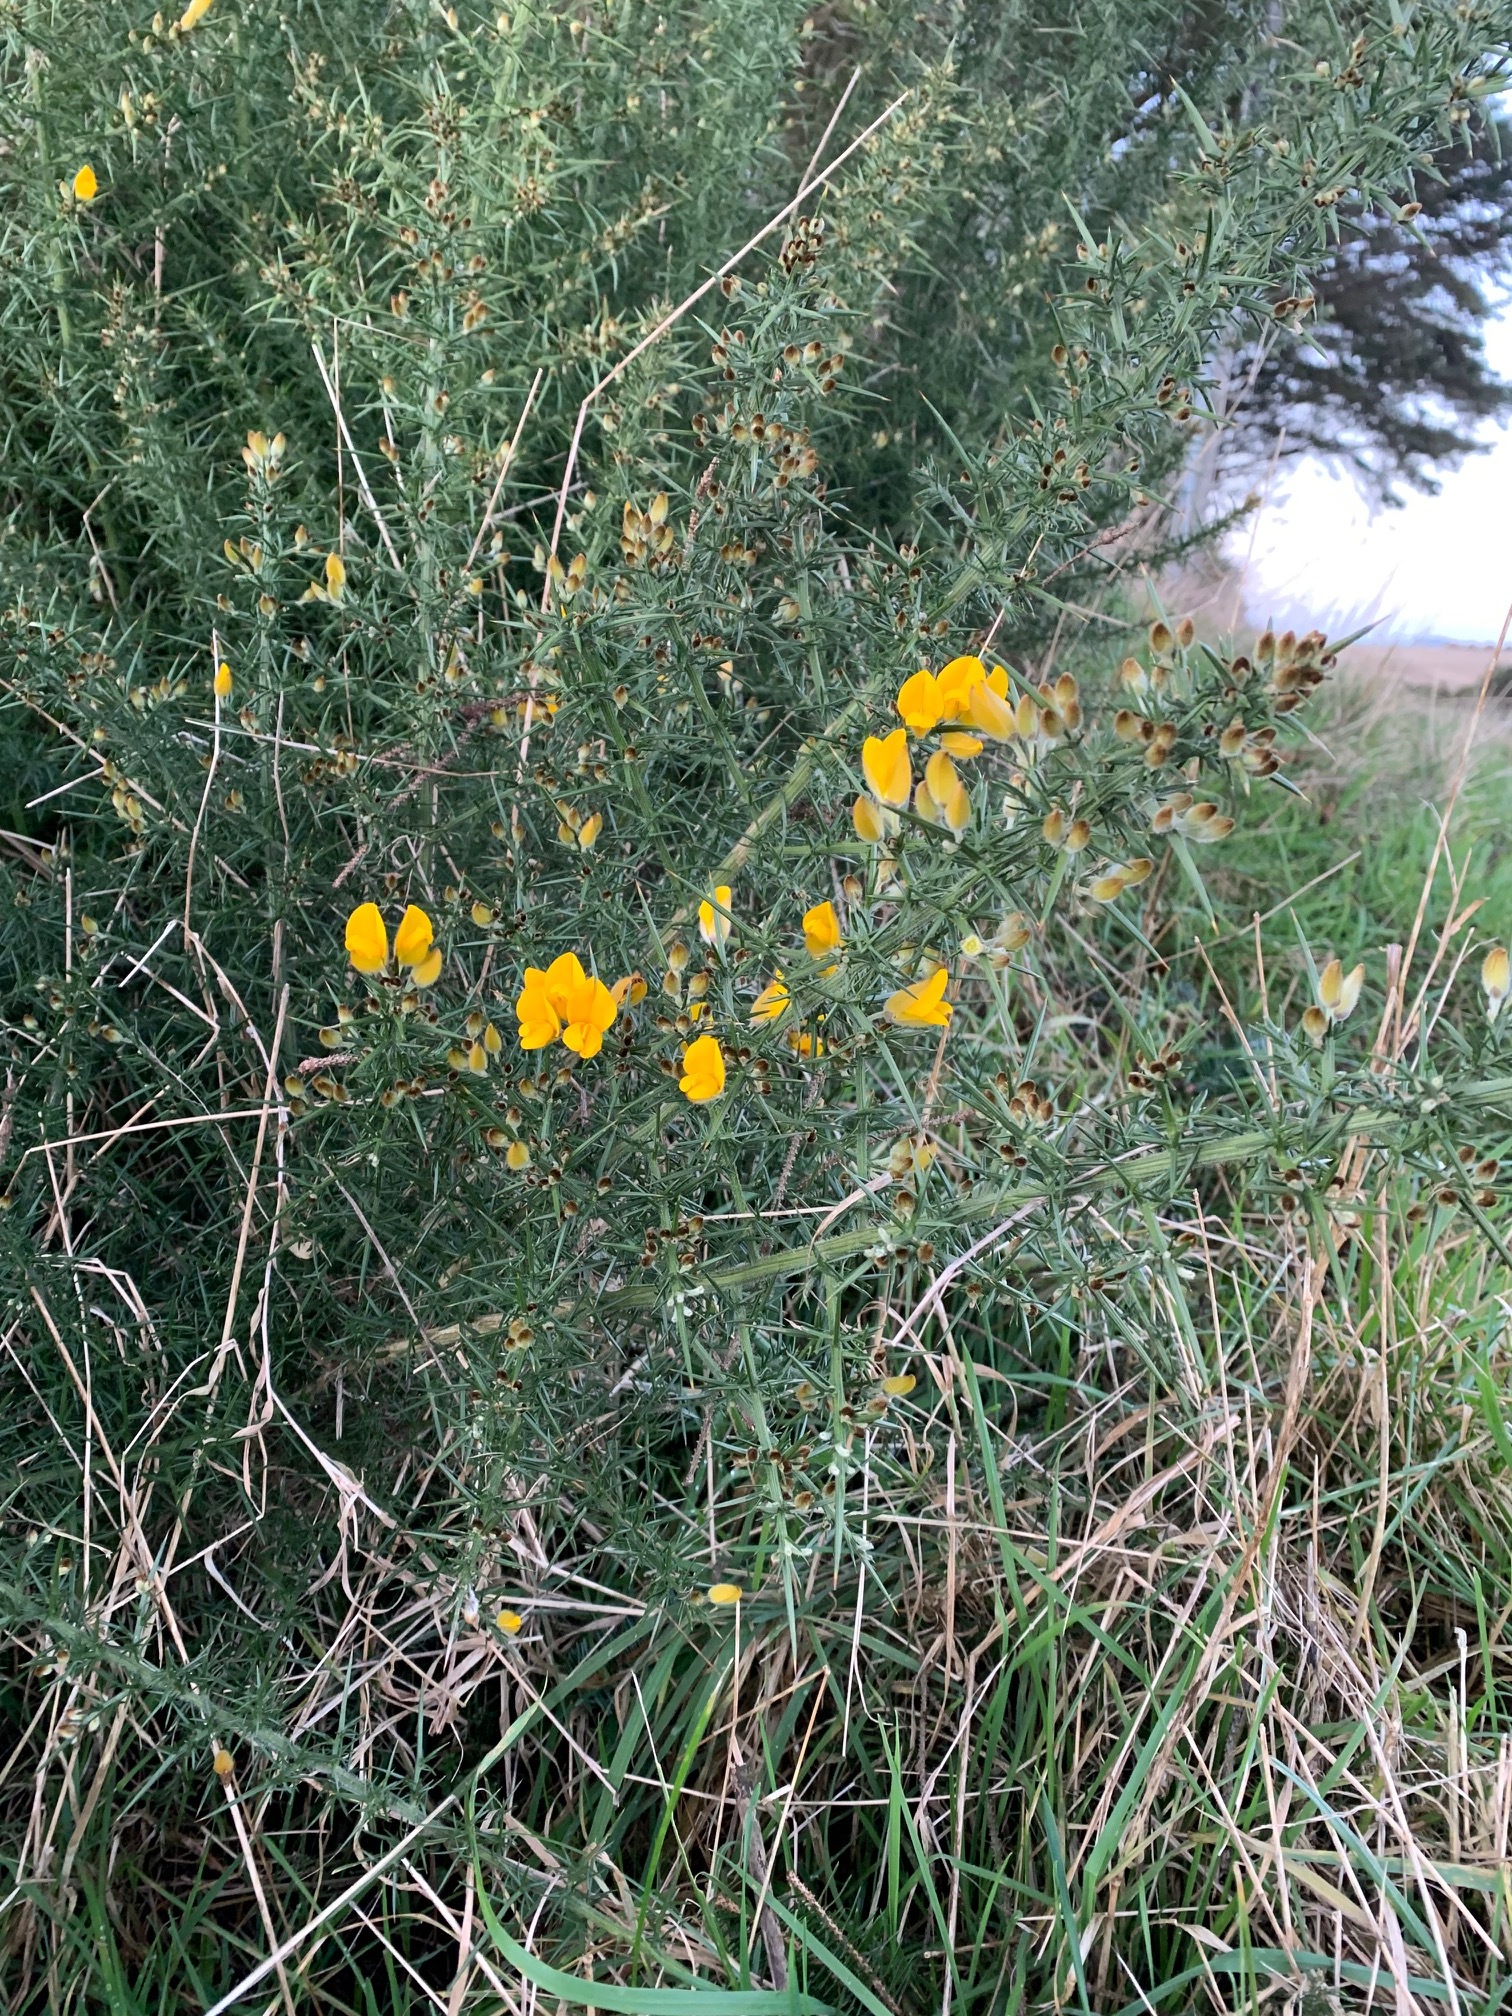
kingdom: Plantae
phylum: Tracheophyta
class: Magnoliopsida
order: Fabales
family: Fabaceae
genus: Ulex
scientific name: Ulex europaeus
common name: Common gorse
